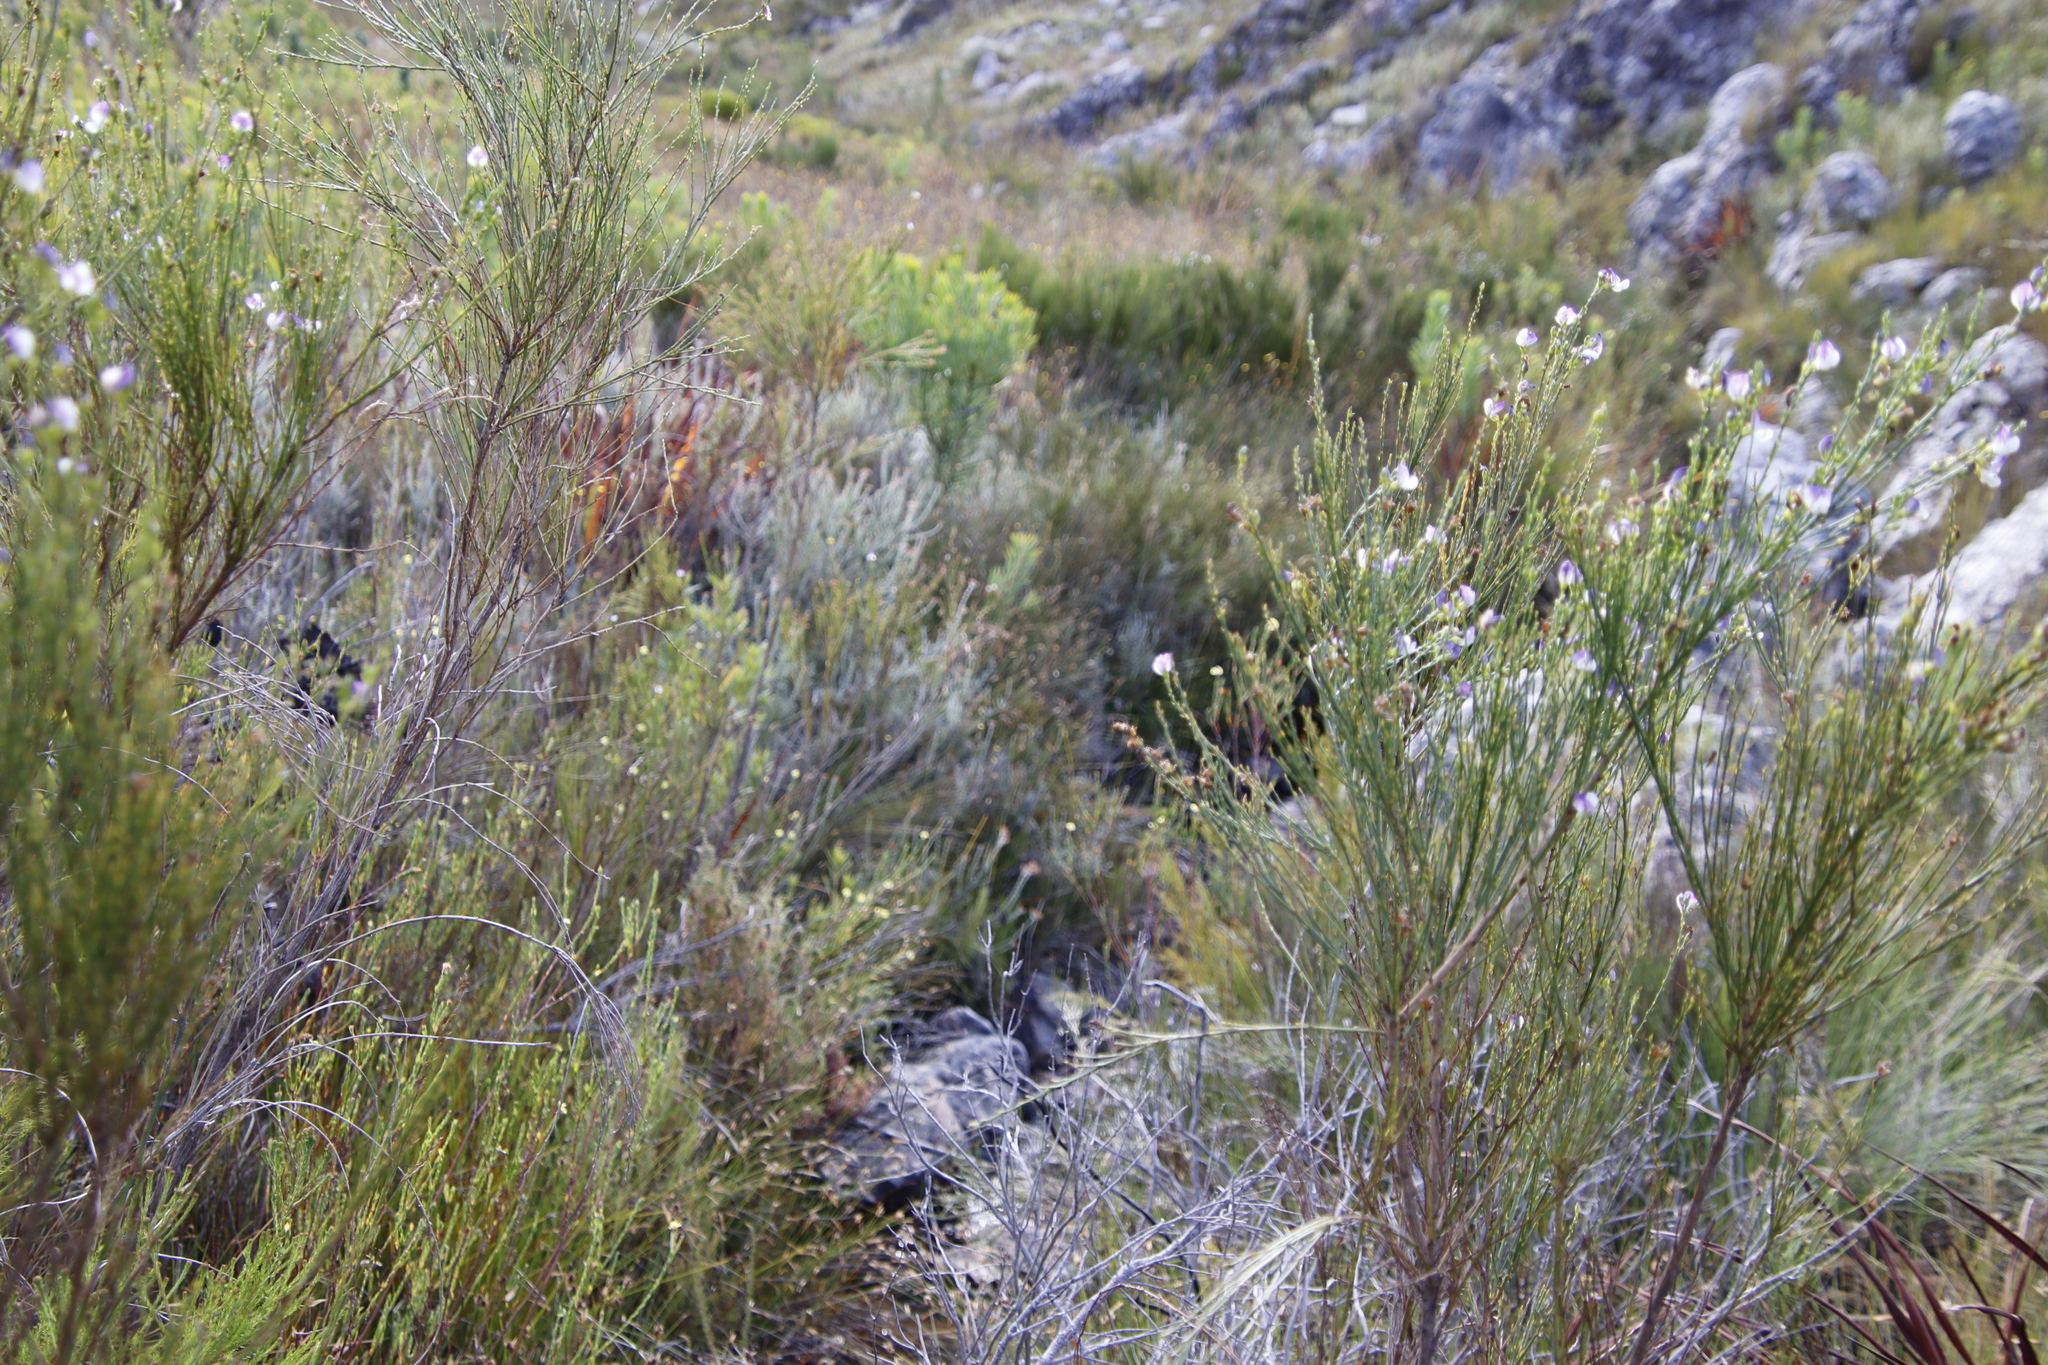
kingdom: Plantae
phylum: Tracheophyta
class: Magnoliopsida
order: Malvales
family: Thymelaeaceae
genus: Gnidia
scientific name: Gnidia oppositifolia
